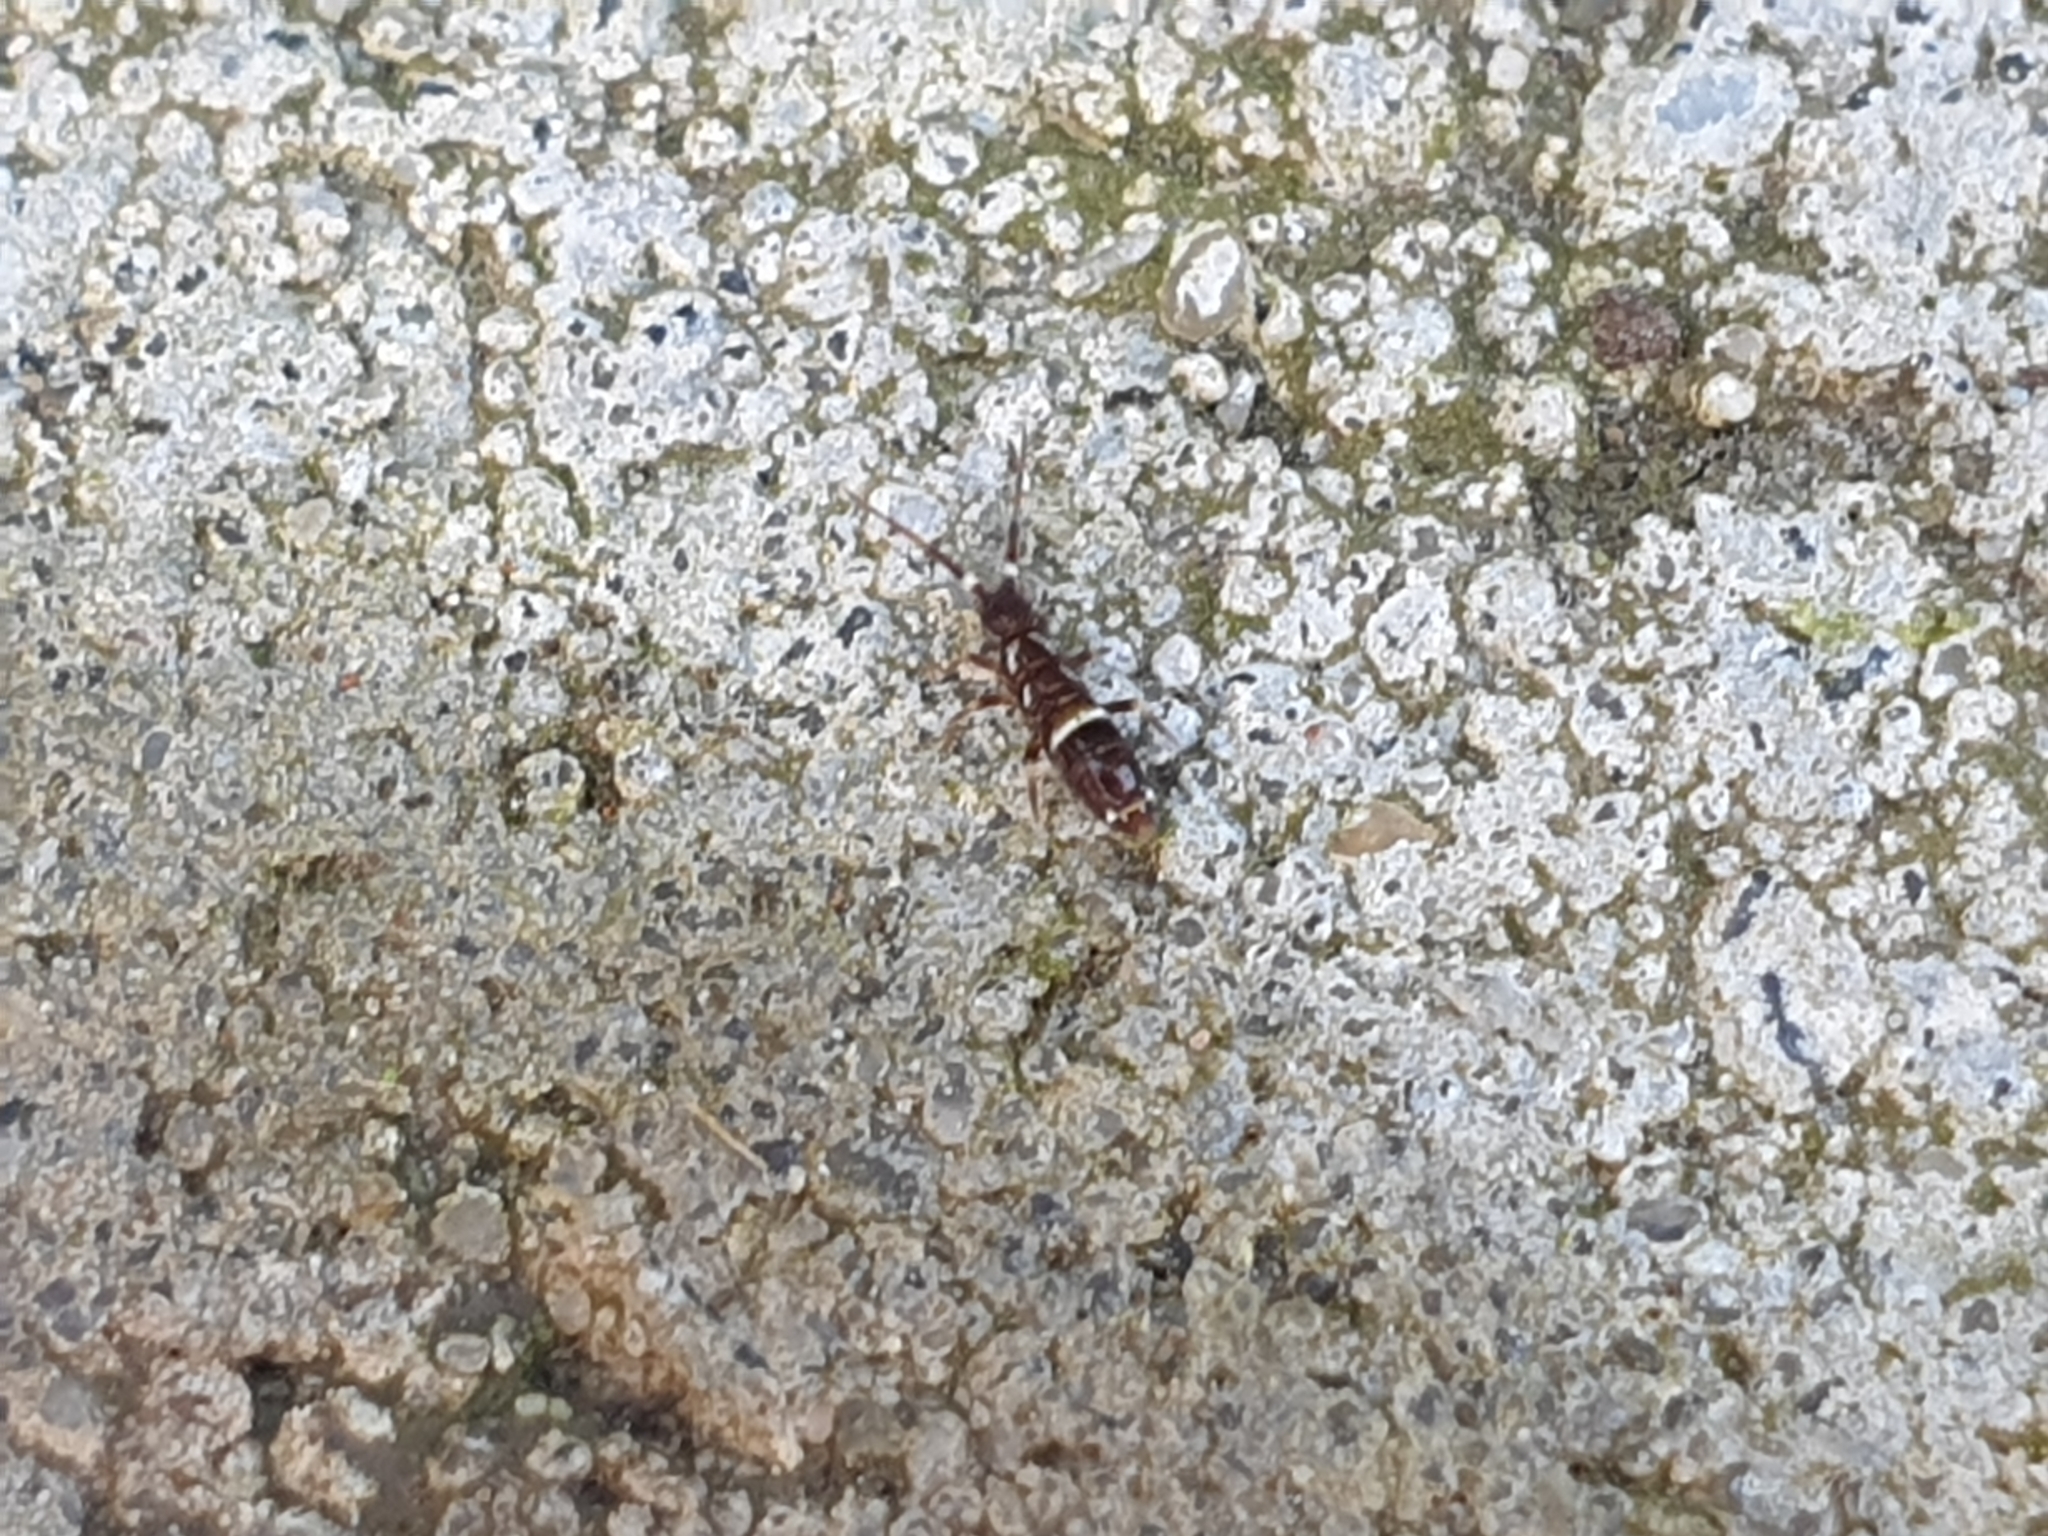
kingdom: Animalia
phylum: Arthropoda
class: Collembola
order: Entomobryomorpha
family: Orchesellidae
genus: Orchesella
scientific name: Orchesella cincta
